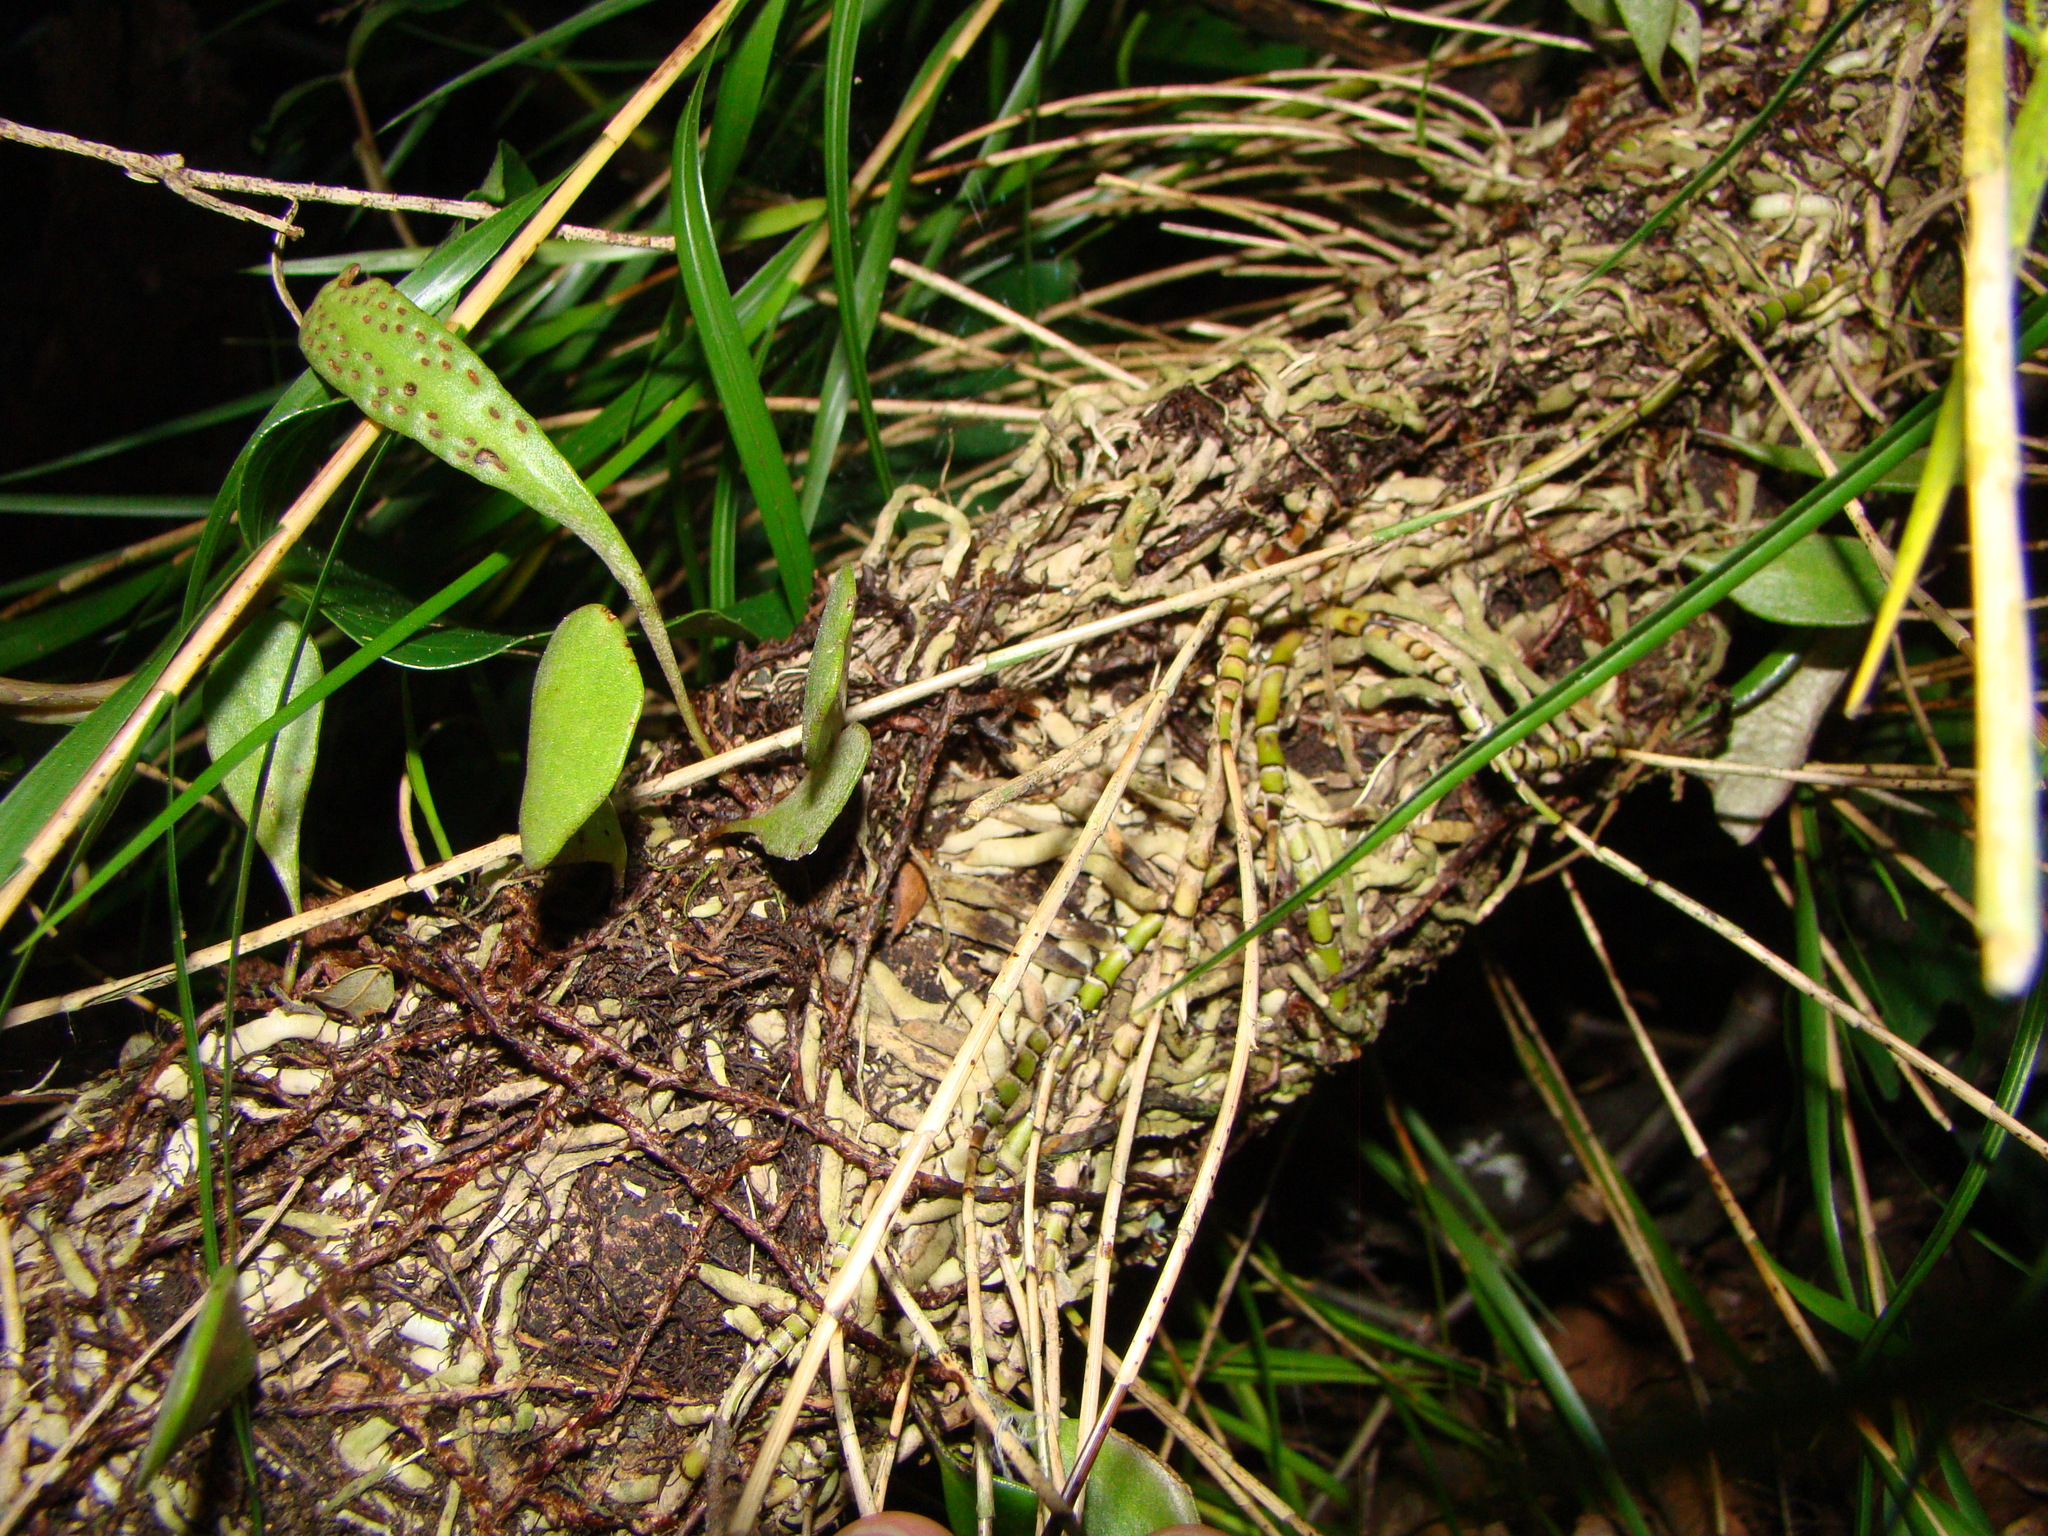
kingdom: Plantae
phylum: Tracheophyta
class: Liliopsida
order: Asparagales
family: Orchidaceae
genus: Earina
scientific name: Earina mucronata
